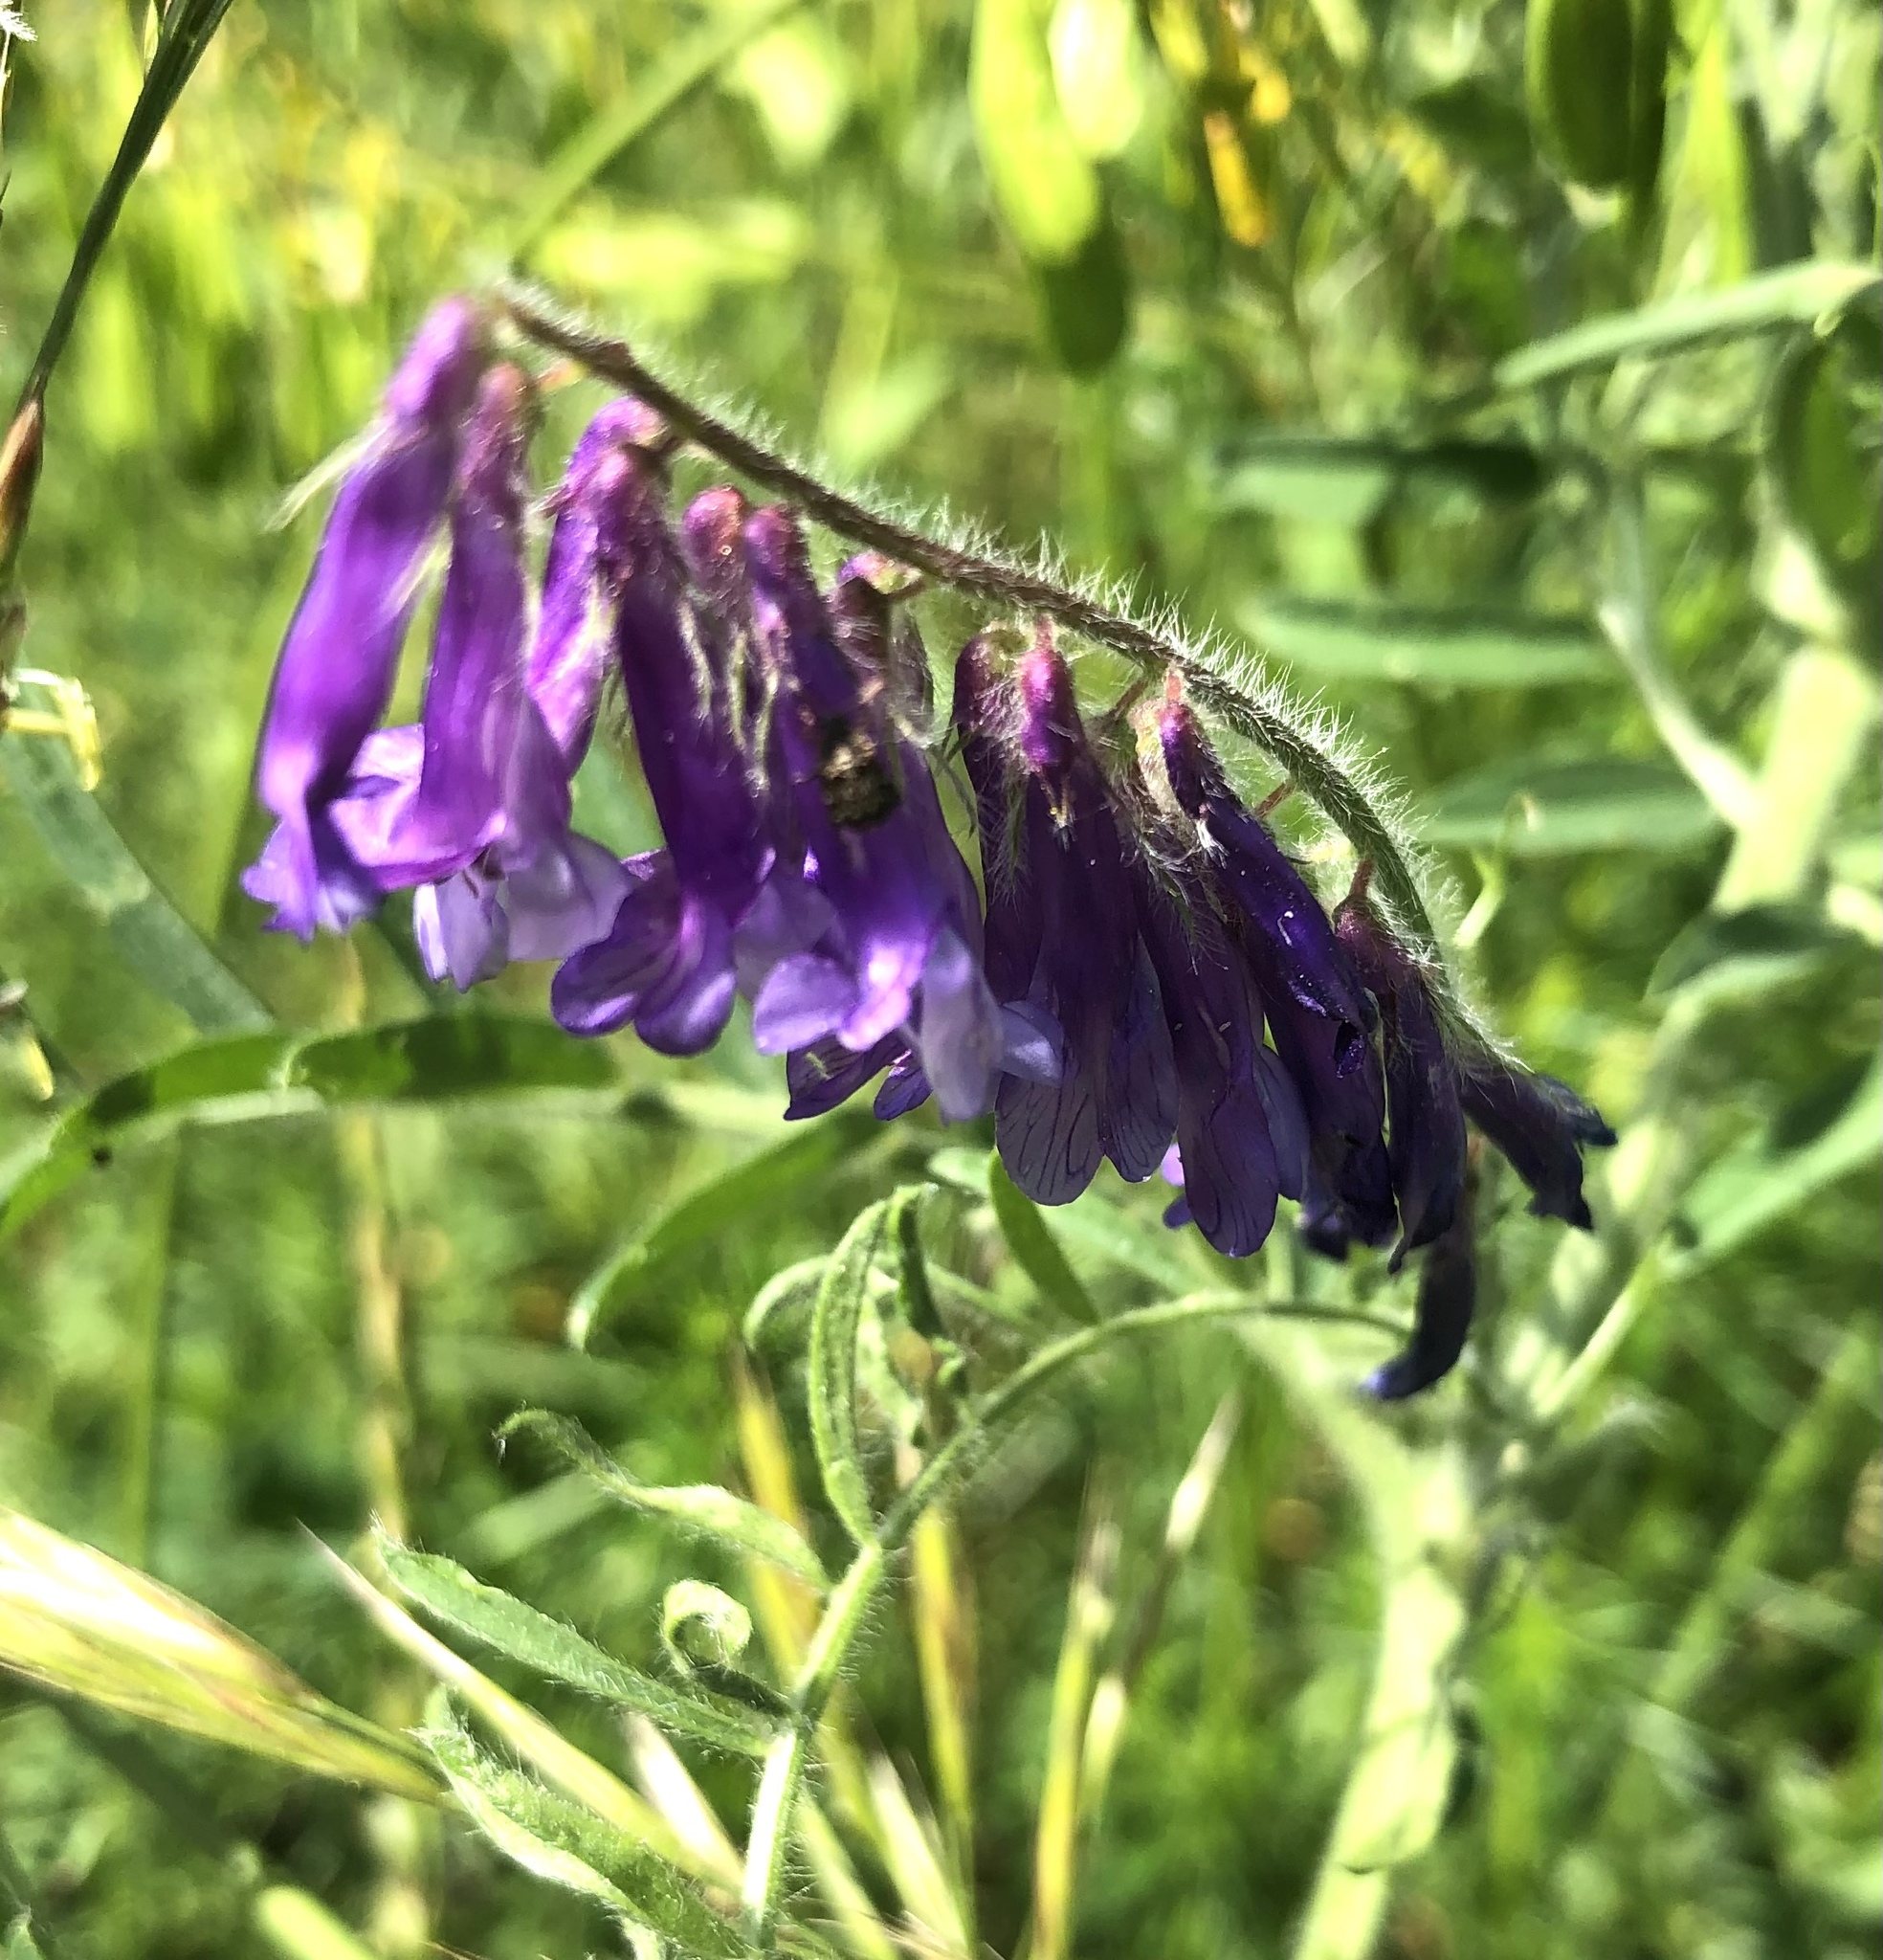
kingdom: Plantae
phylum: Tracheophyta
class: Magnoliopsida
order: Fabales
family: Fabaceae
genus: Vicia
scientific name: Vicia villosa
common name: Fodder vetch
